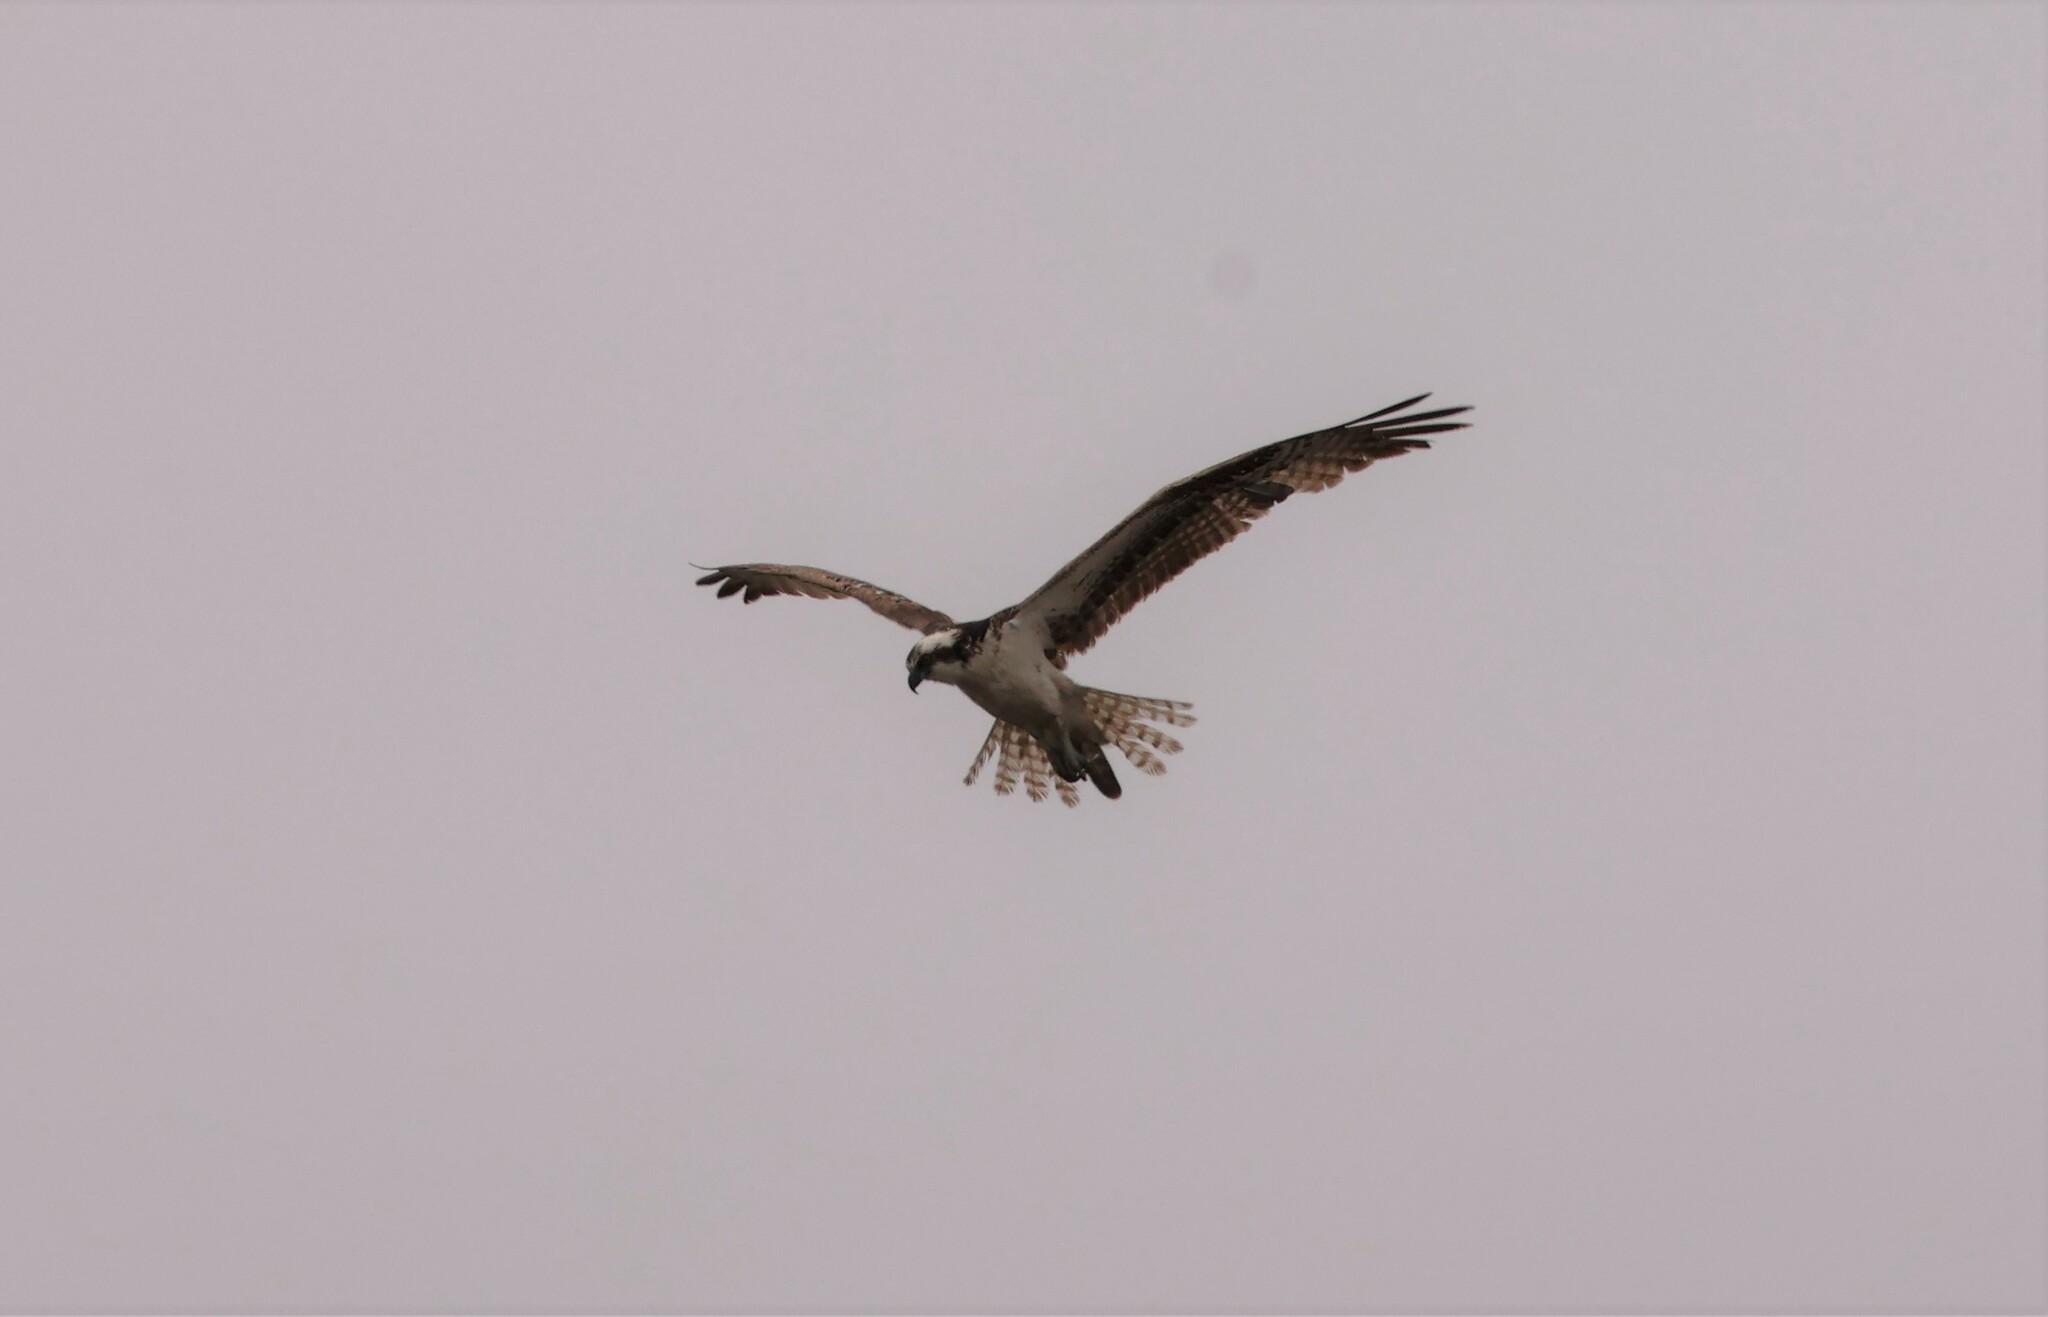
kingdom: Animalia
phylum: Chordata
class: Aves
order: Accipitriformes
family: Pandionidae
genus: Pandion
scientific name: Pandion haliaetus
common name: Osprey
